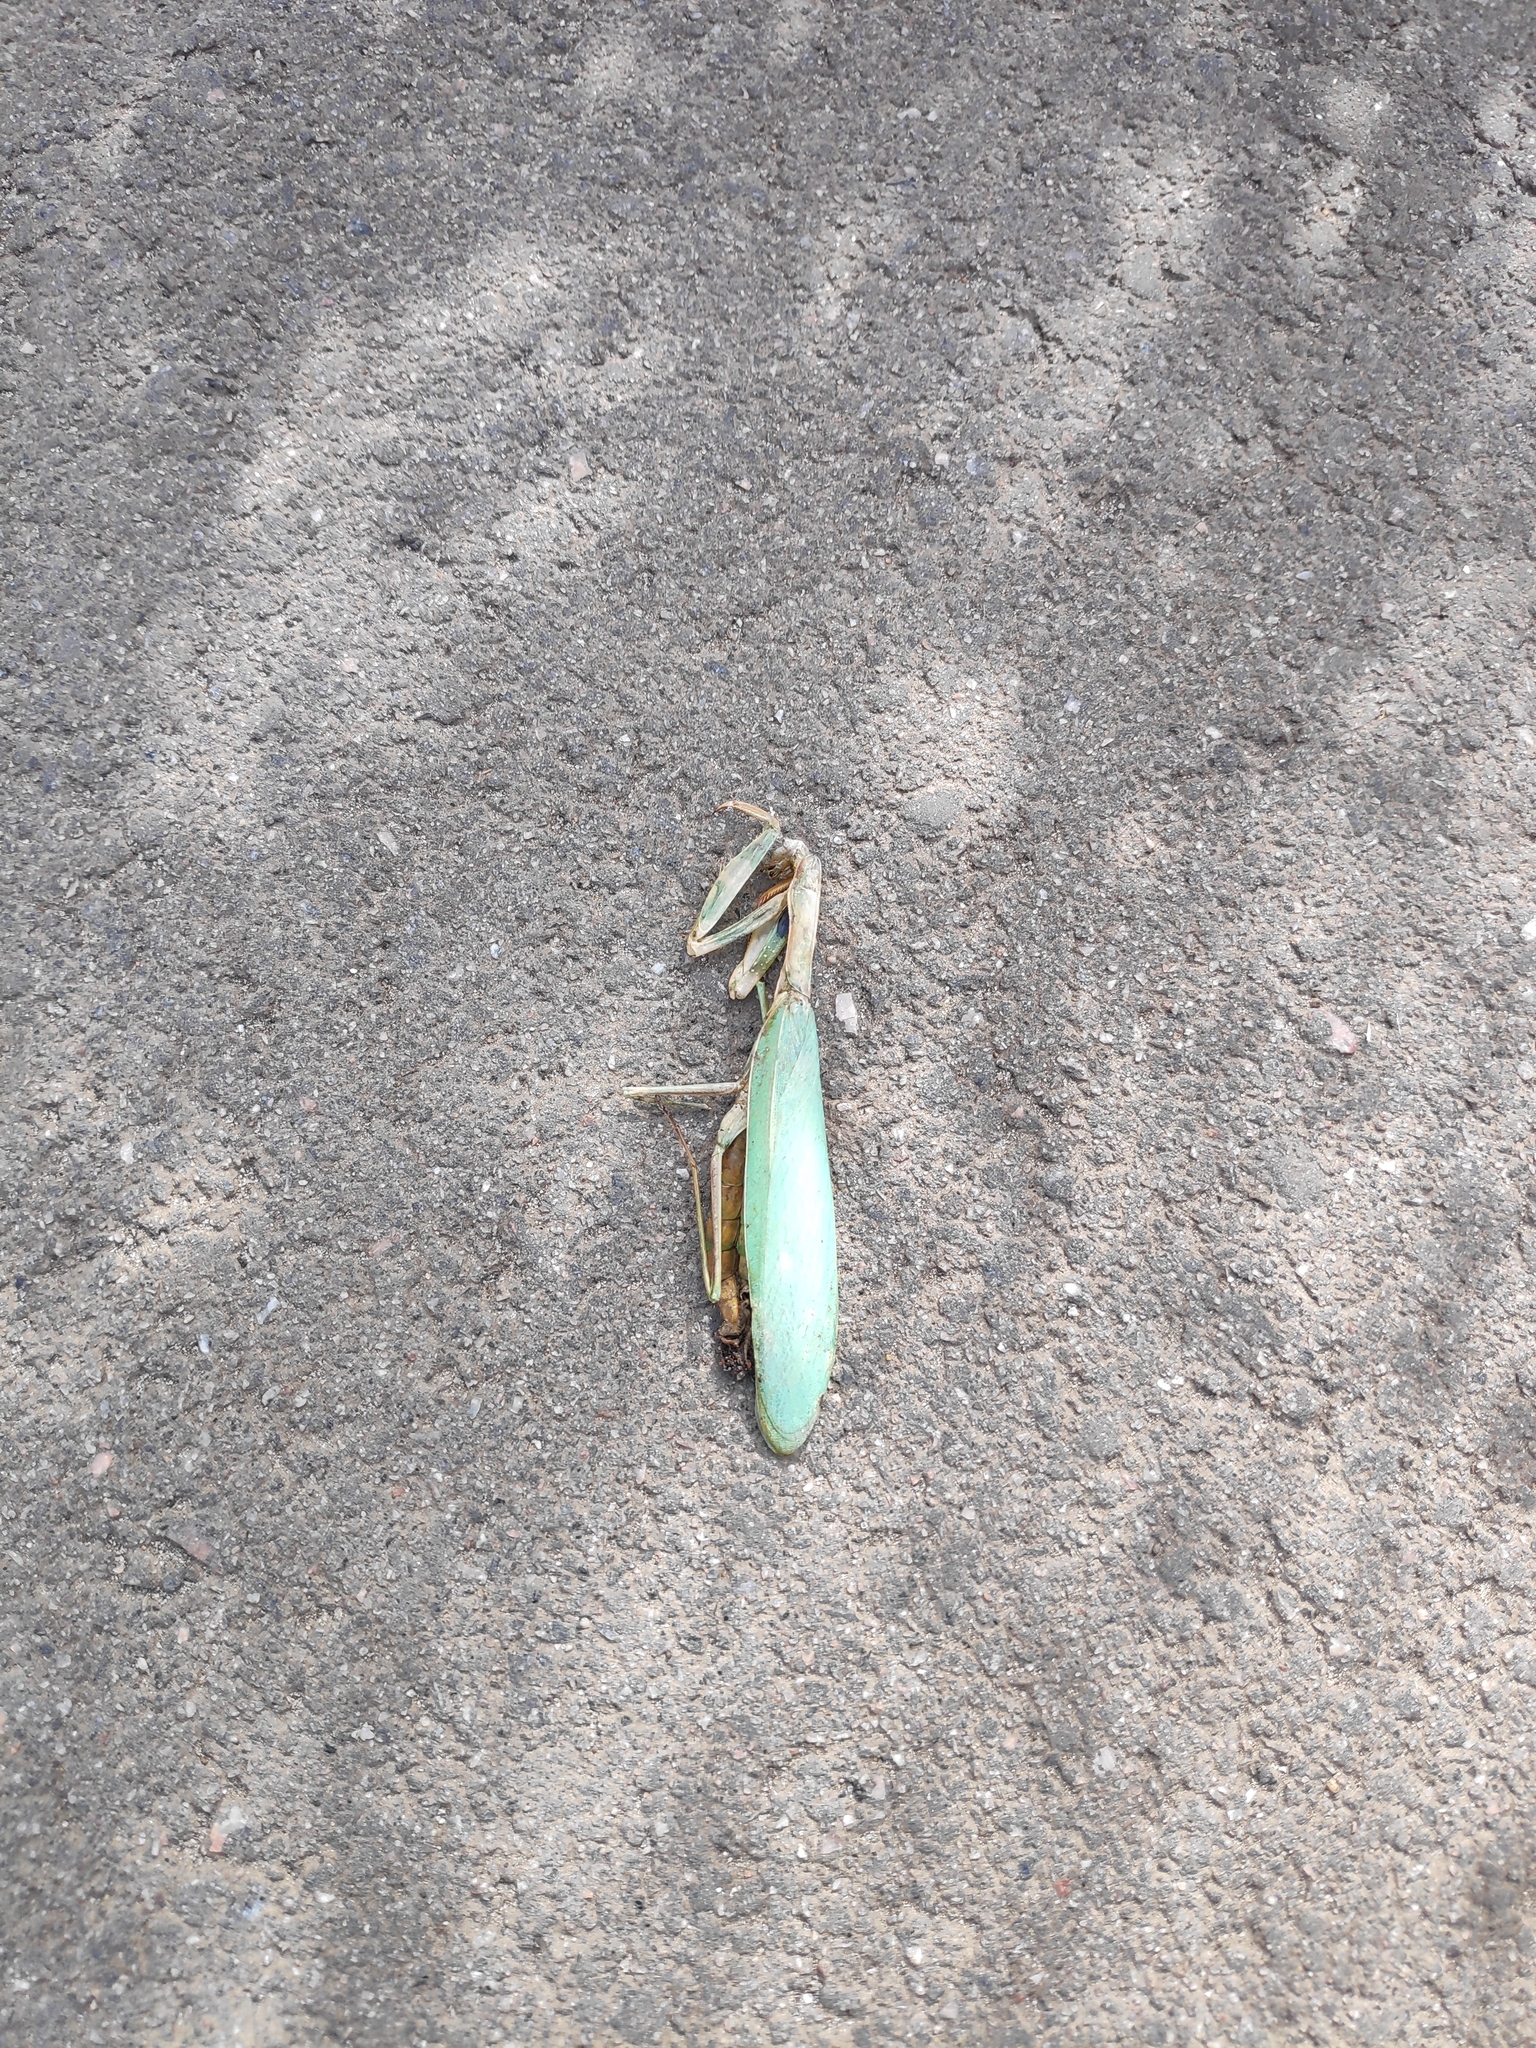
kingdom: Animalia
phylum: Arthropoda
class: Insecta
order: Mantodea
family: Mantidae
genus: Mantis
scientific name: Mantis religiosa
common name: Praying mantis
